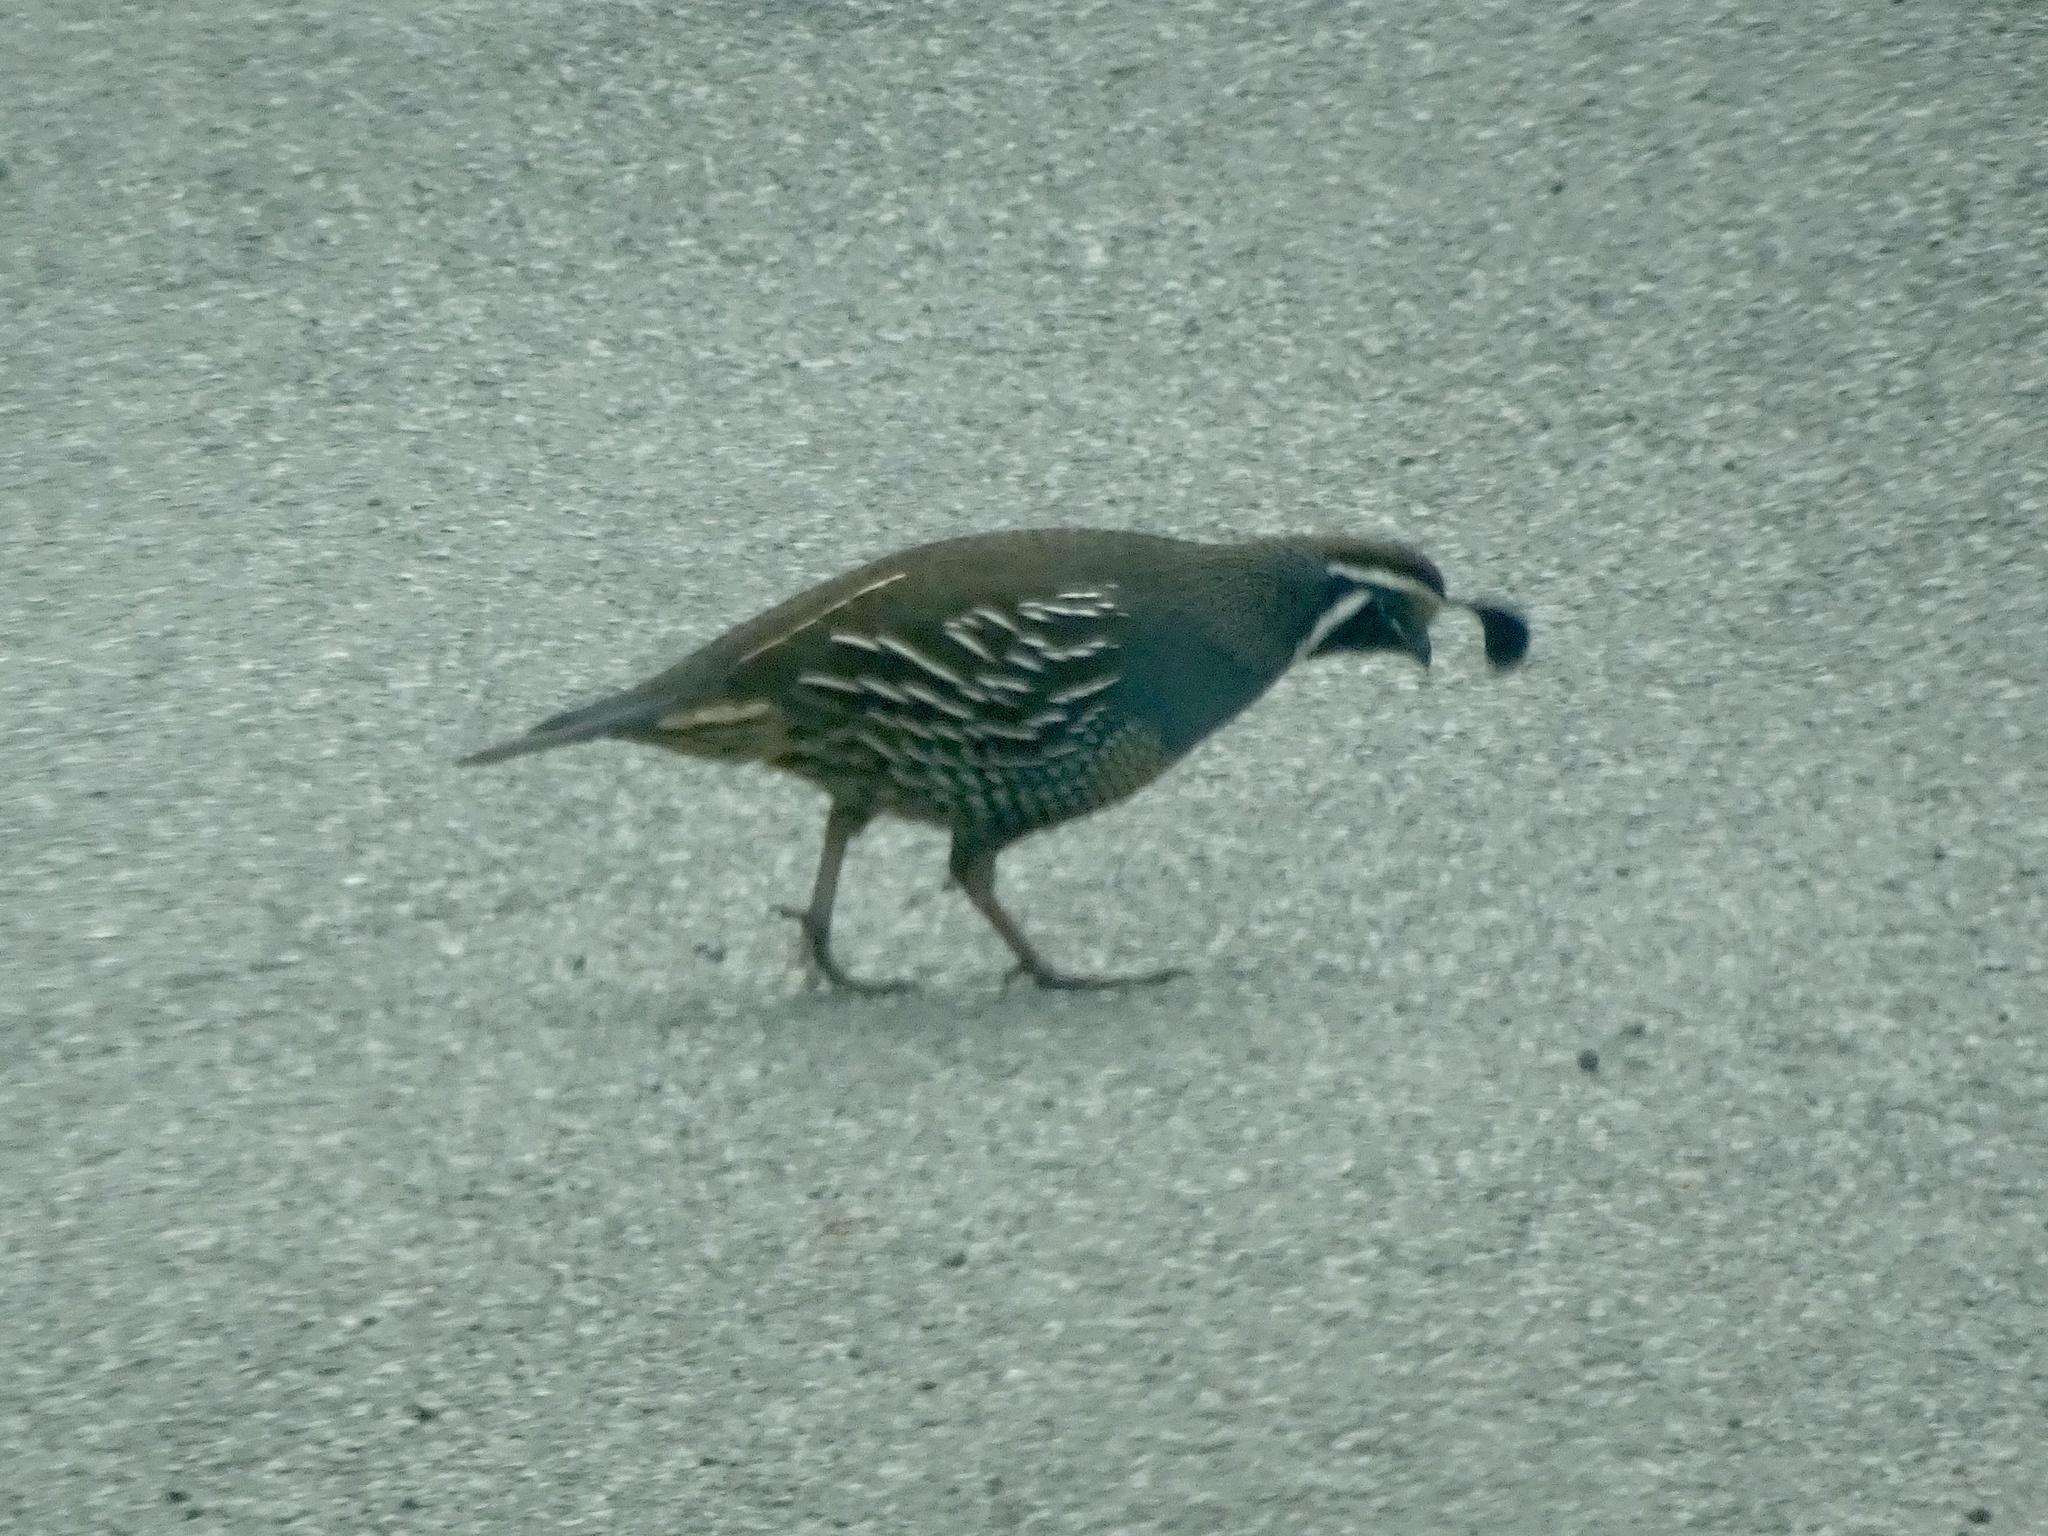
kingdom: Animalia
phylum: Chordata
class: Aves
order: Galliformes
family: Odontophoridae
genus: Callipepla
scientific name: Callipepla californica
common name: California quail
